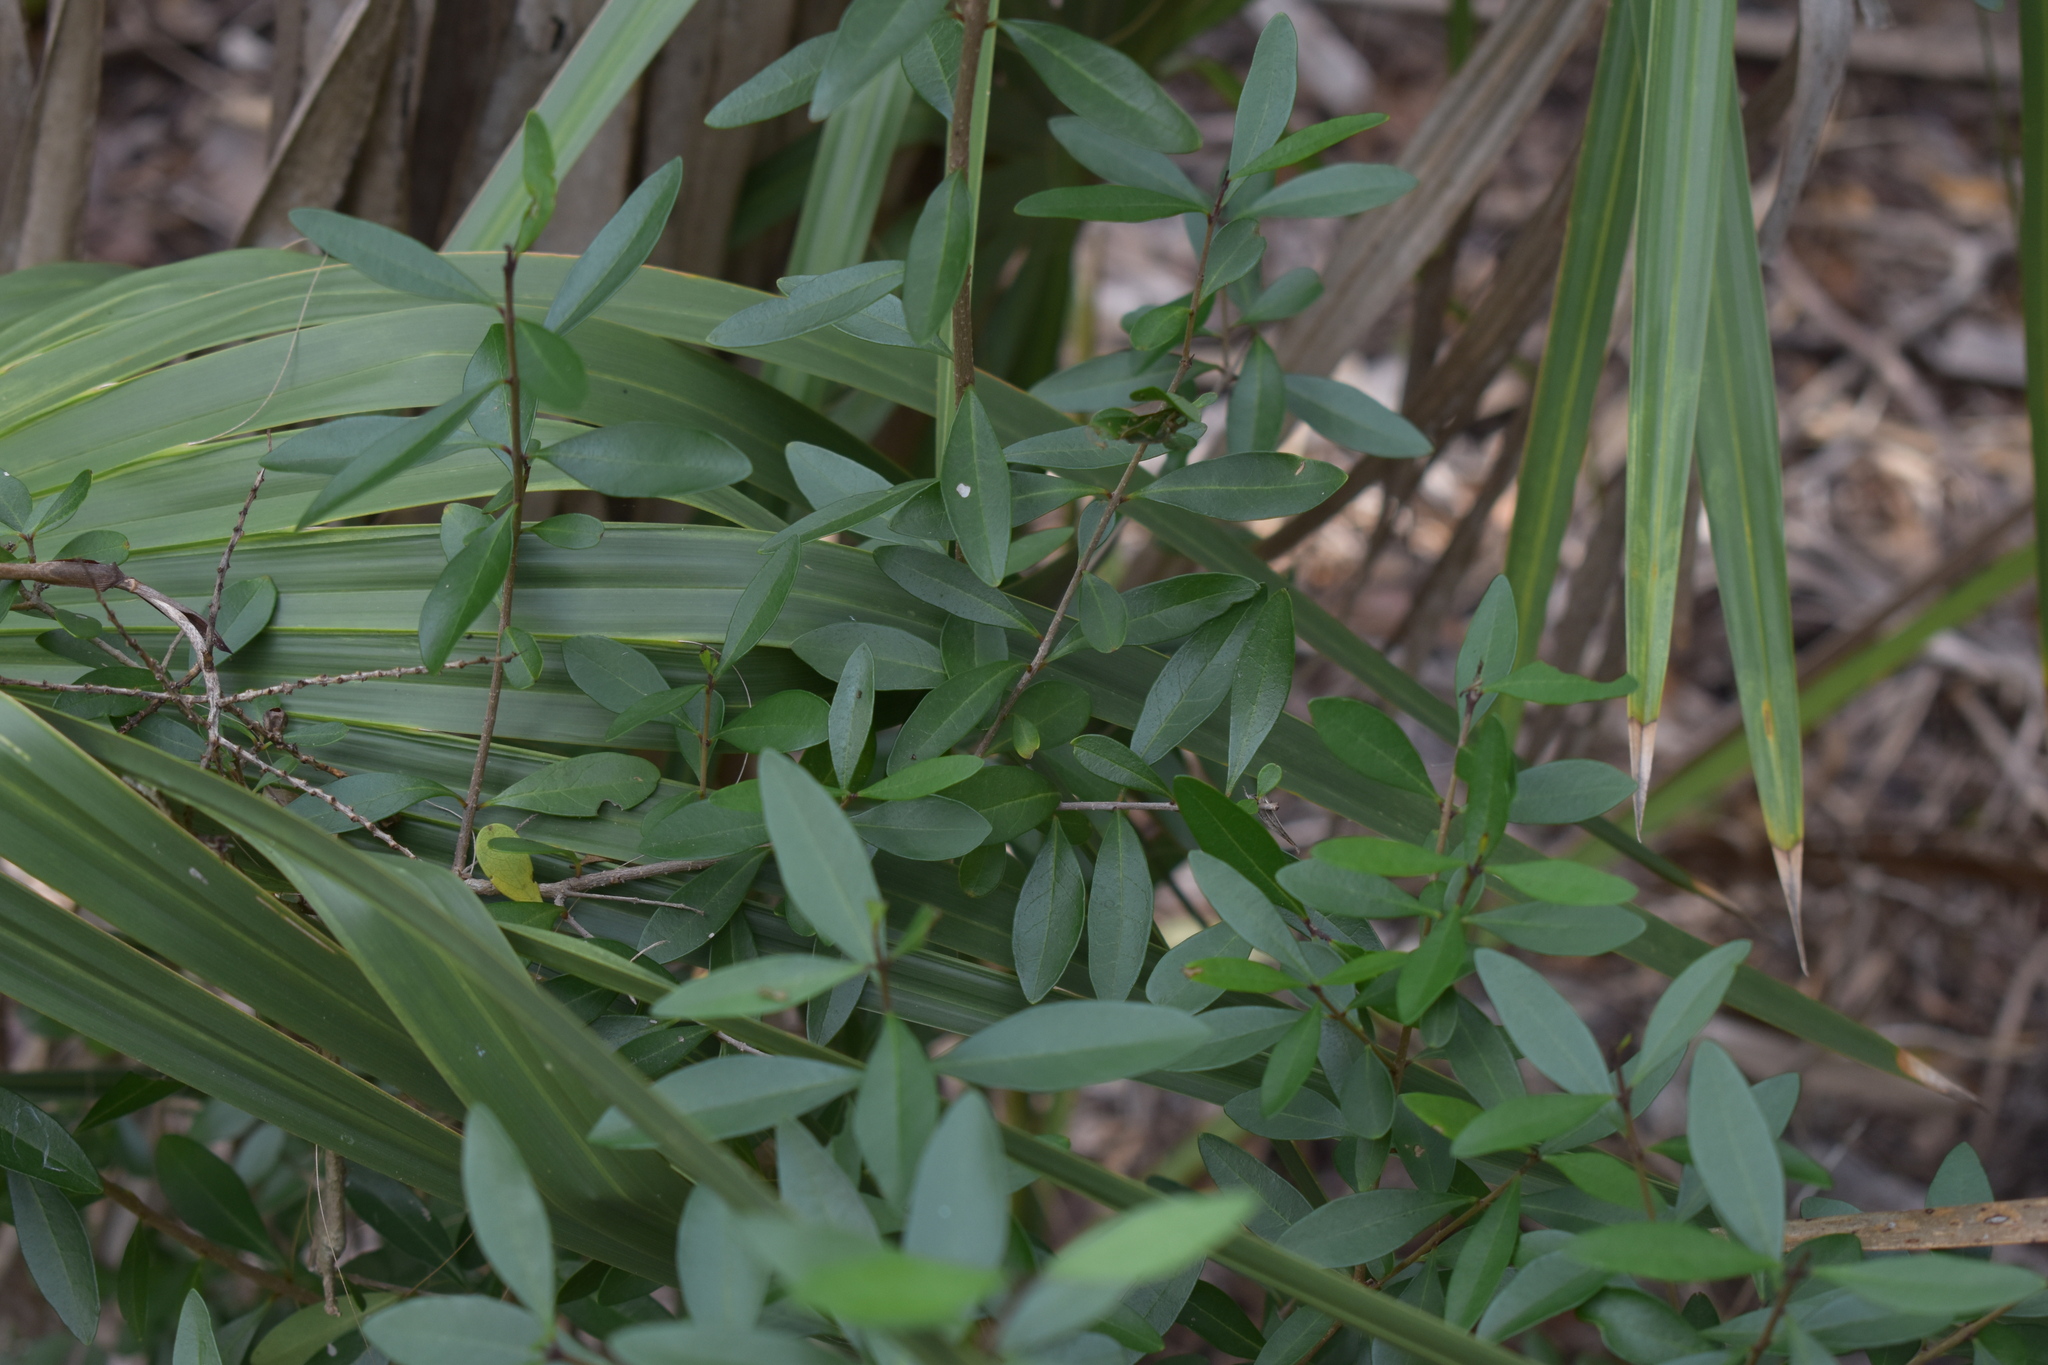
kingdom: Plantae
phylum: Tracheophyta
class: Magnoliopsida
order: Lamiales
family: Oleaceae
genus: Forestiera
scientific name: Forestiera segregata
